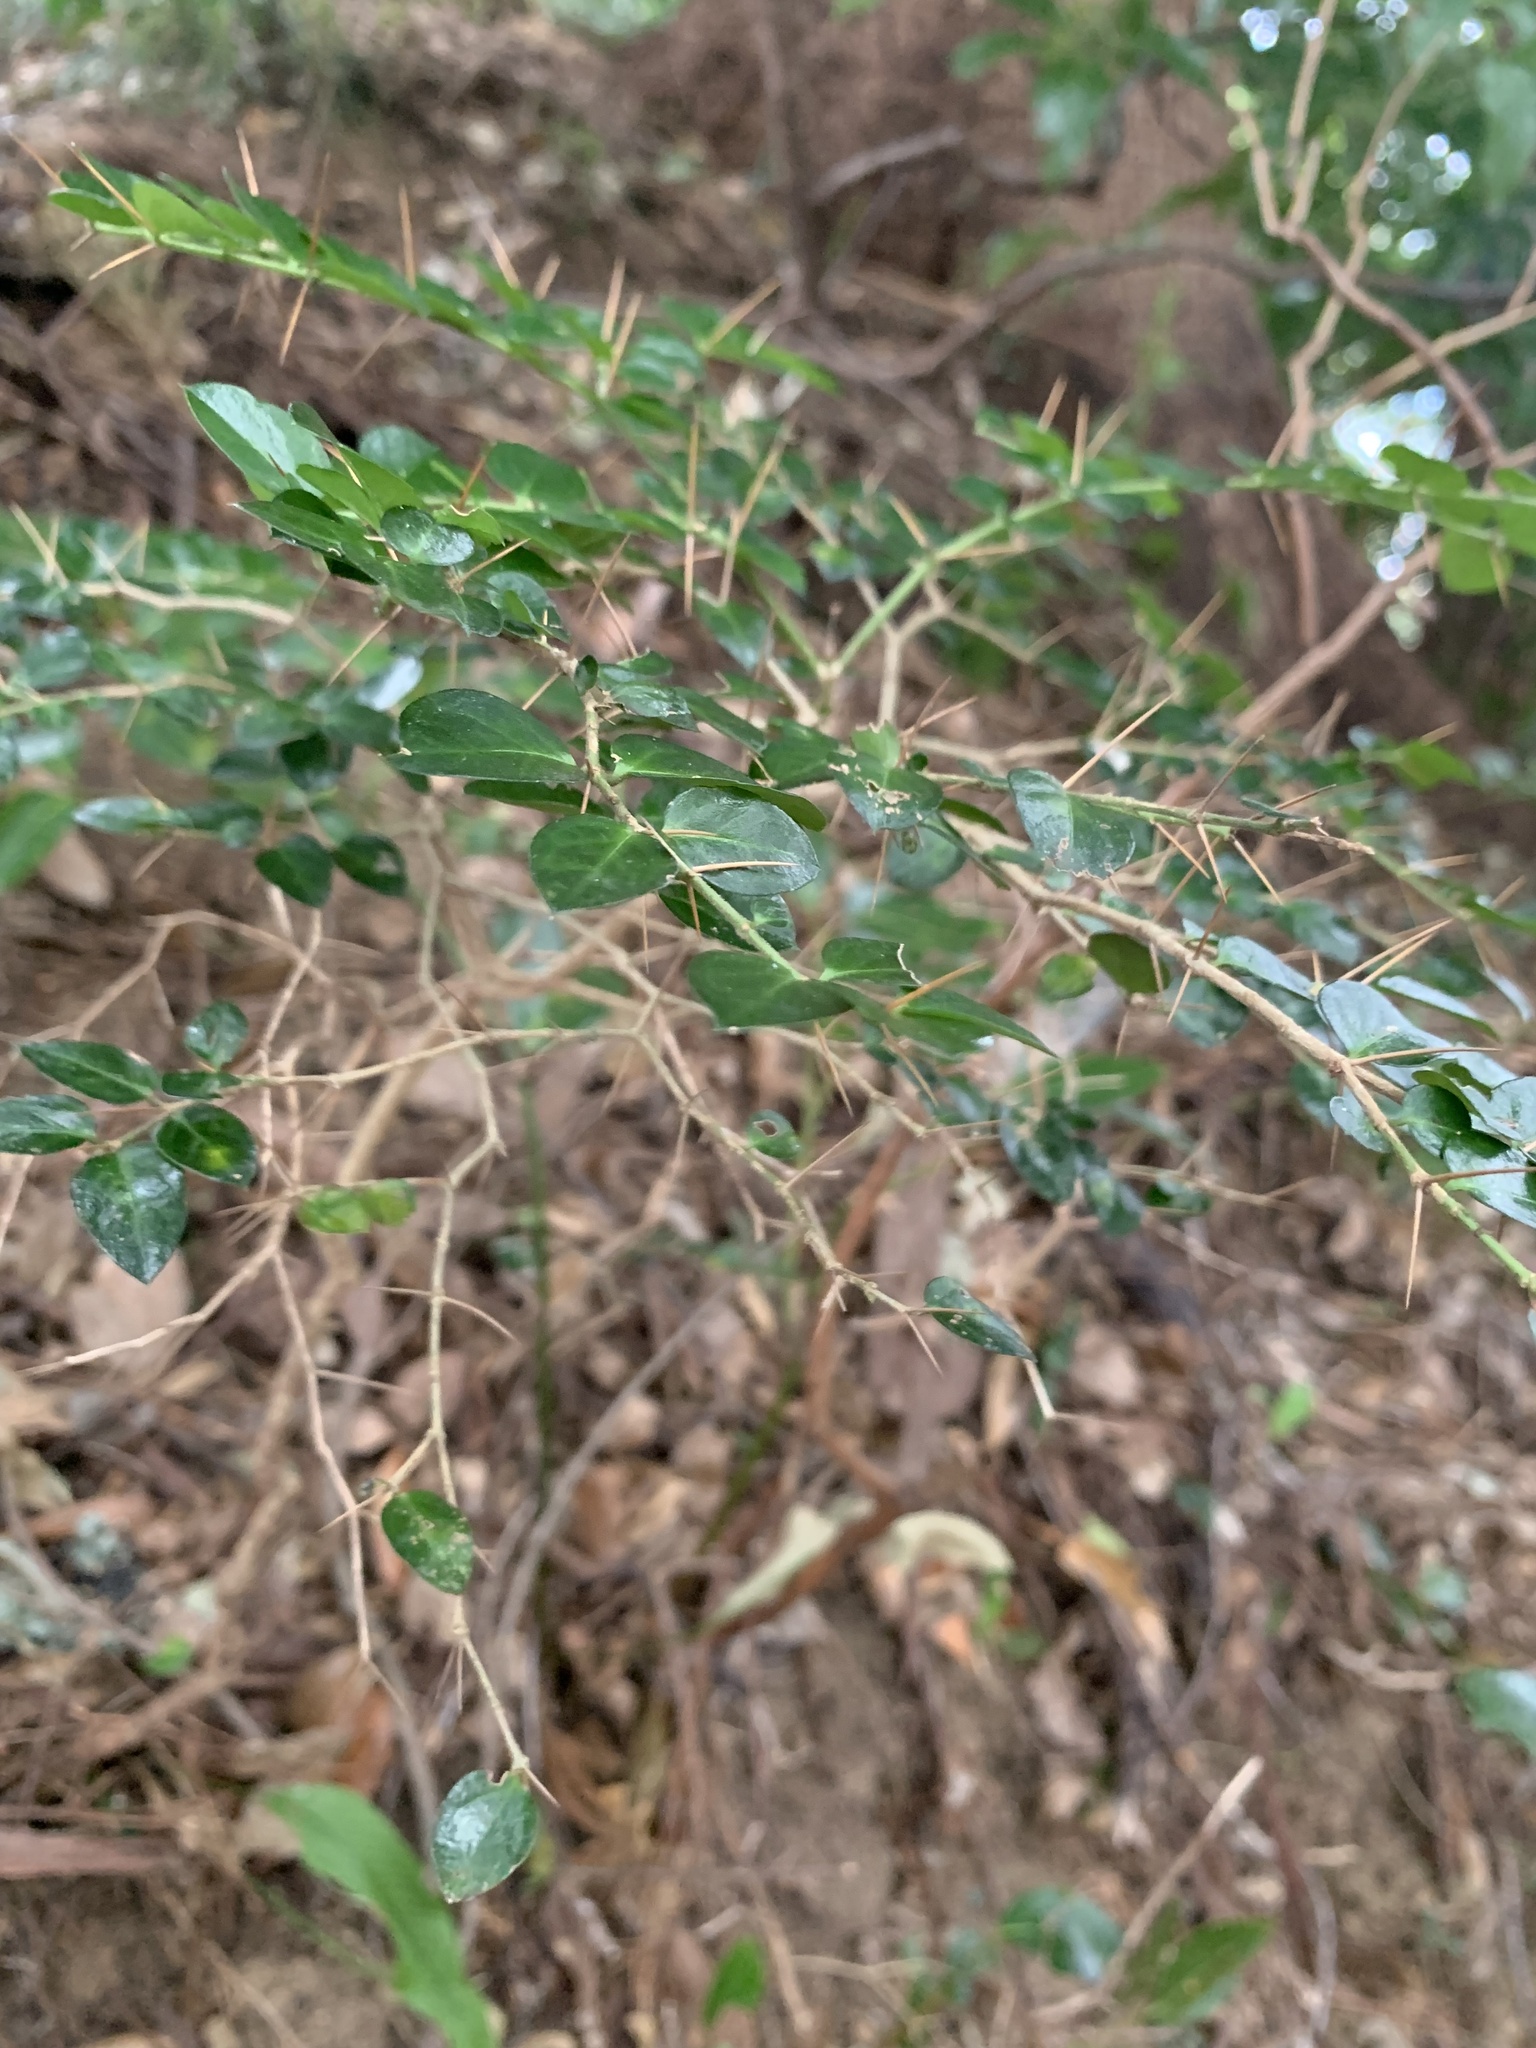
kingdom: Plantae
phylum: Tracheophyta
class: Magnoliopsida
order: Gentianales
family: Rubiaceae
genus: Damnacanthus
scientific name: Damnacanthus indicus
